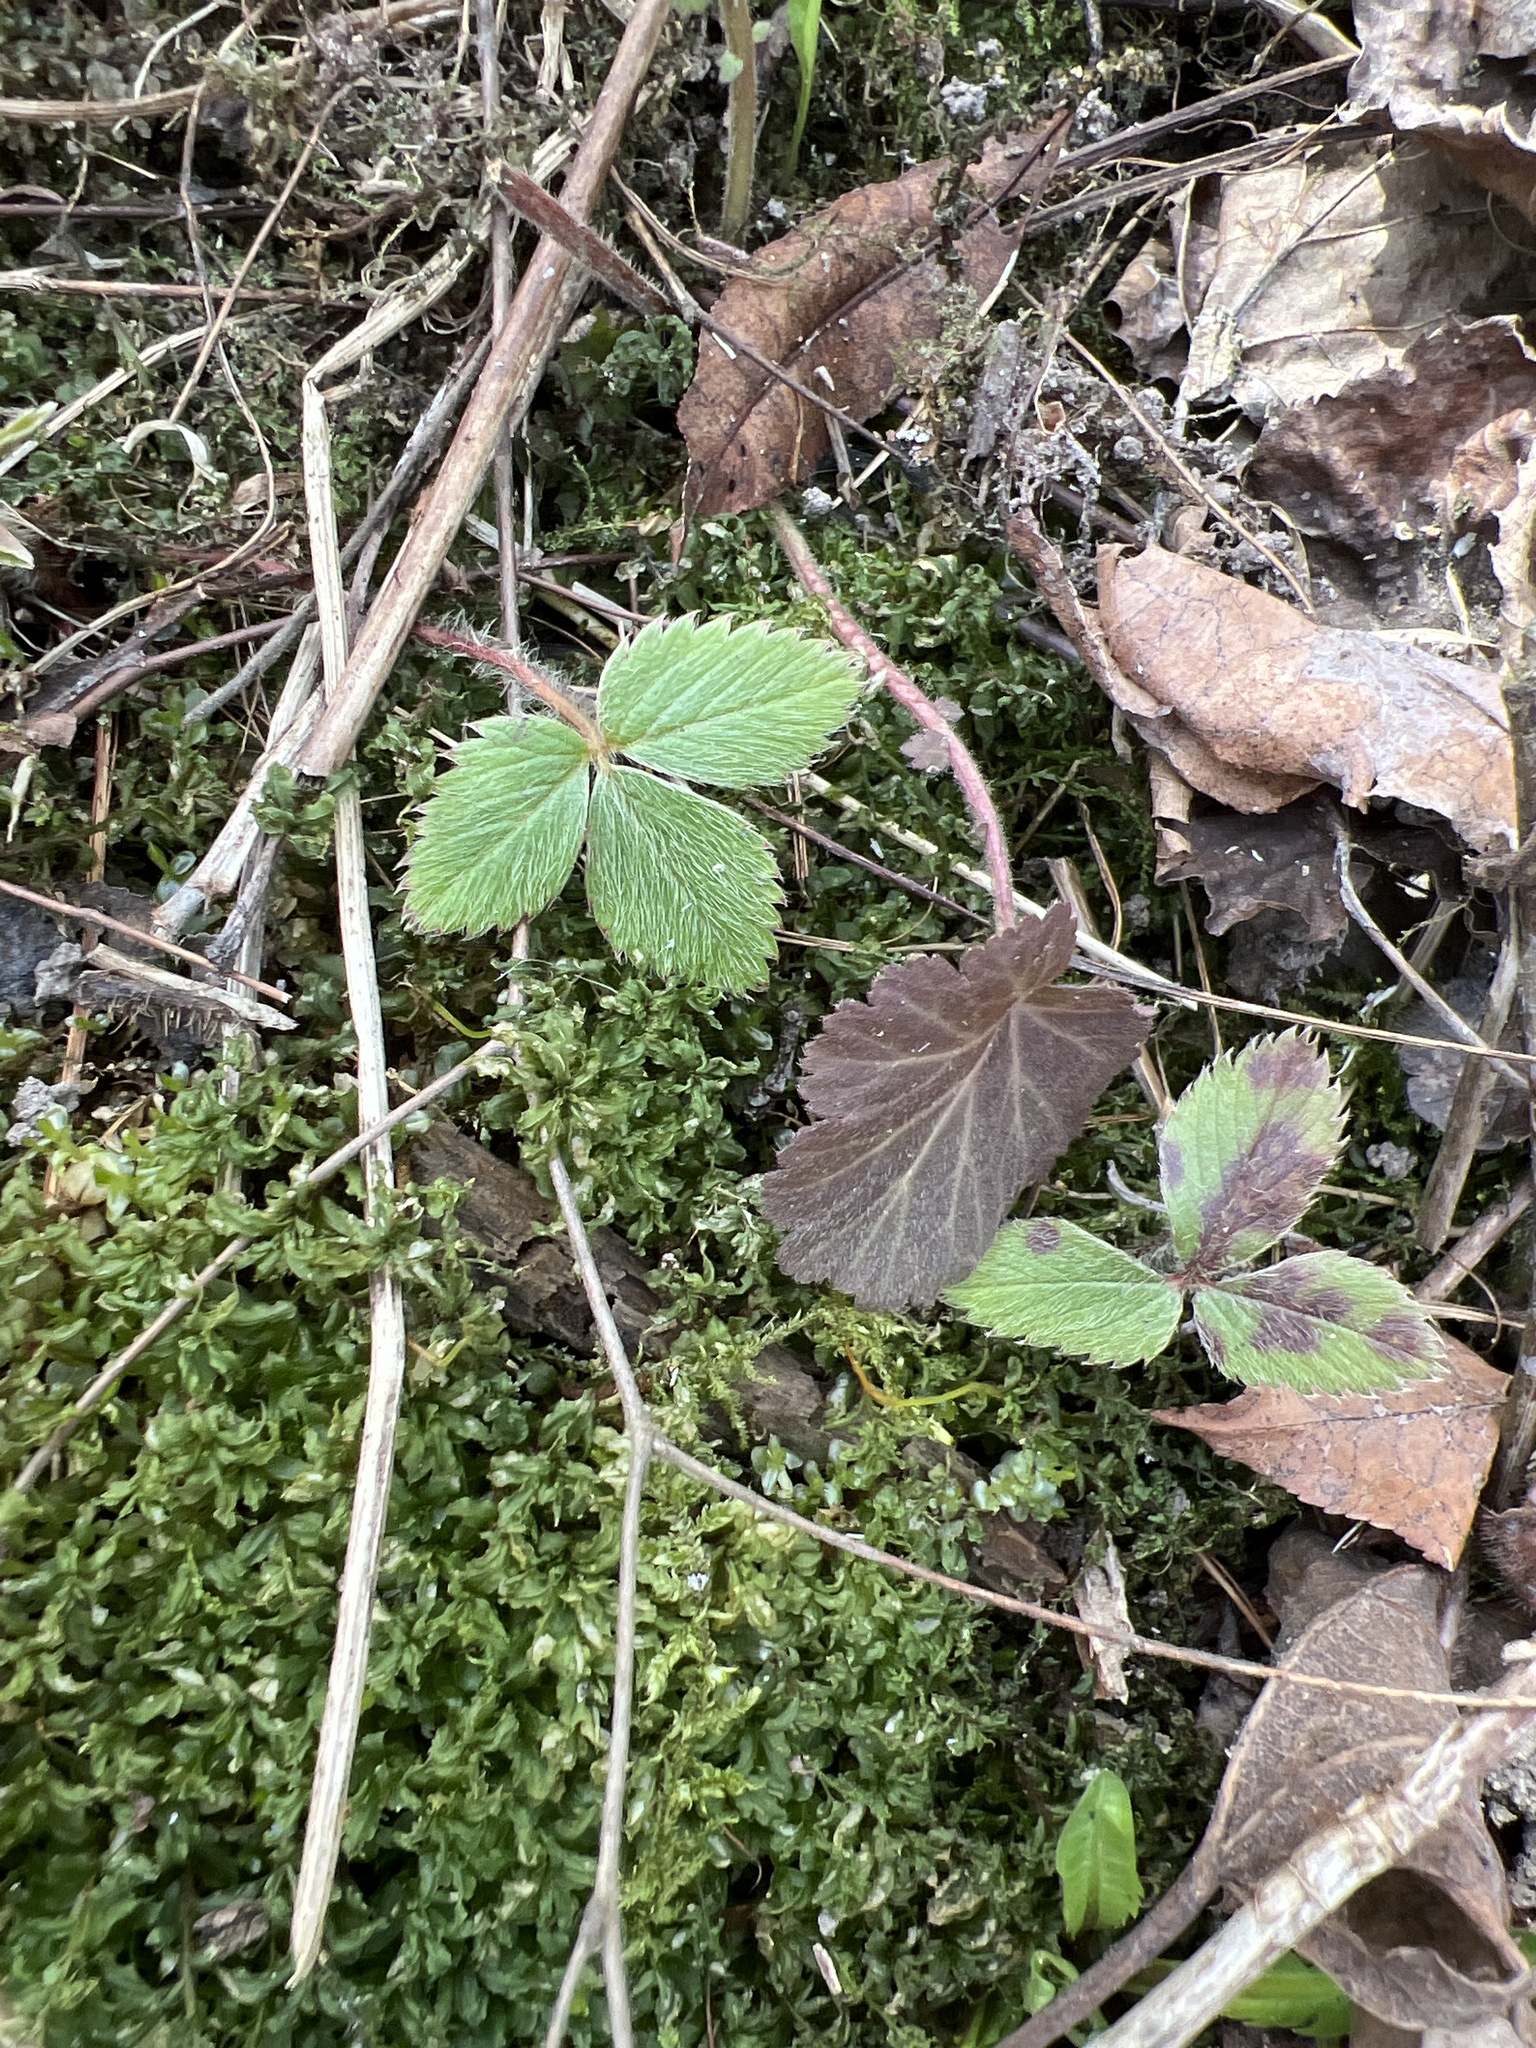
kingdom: Plantae
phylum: Tracheophyta
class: Magnoliopsida
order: Rosales
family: Rosaceae
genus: Fragaria
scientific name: Fragaria vesca
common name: Wild strawberry
